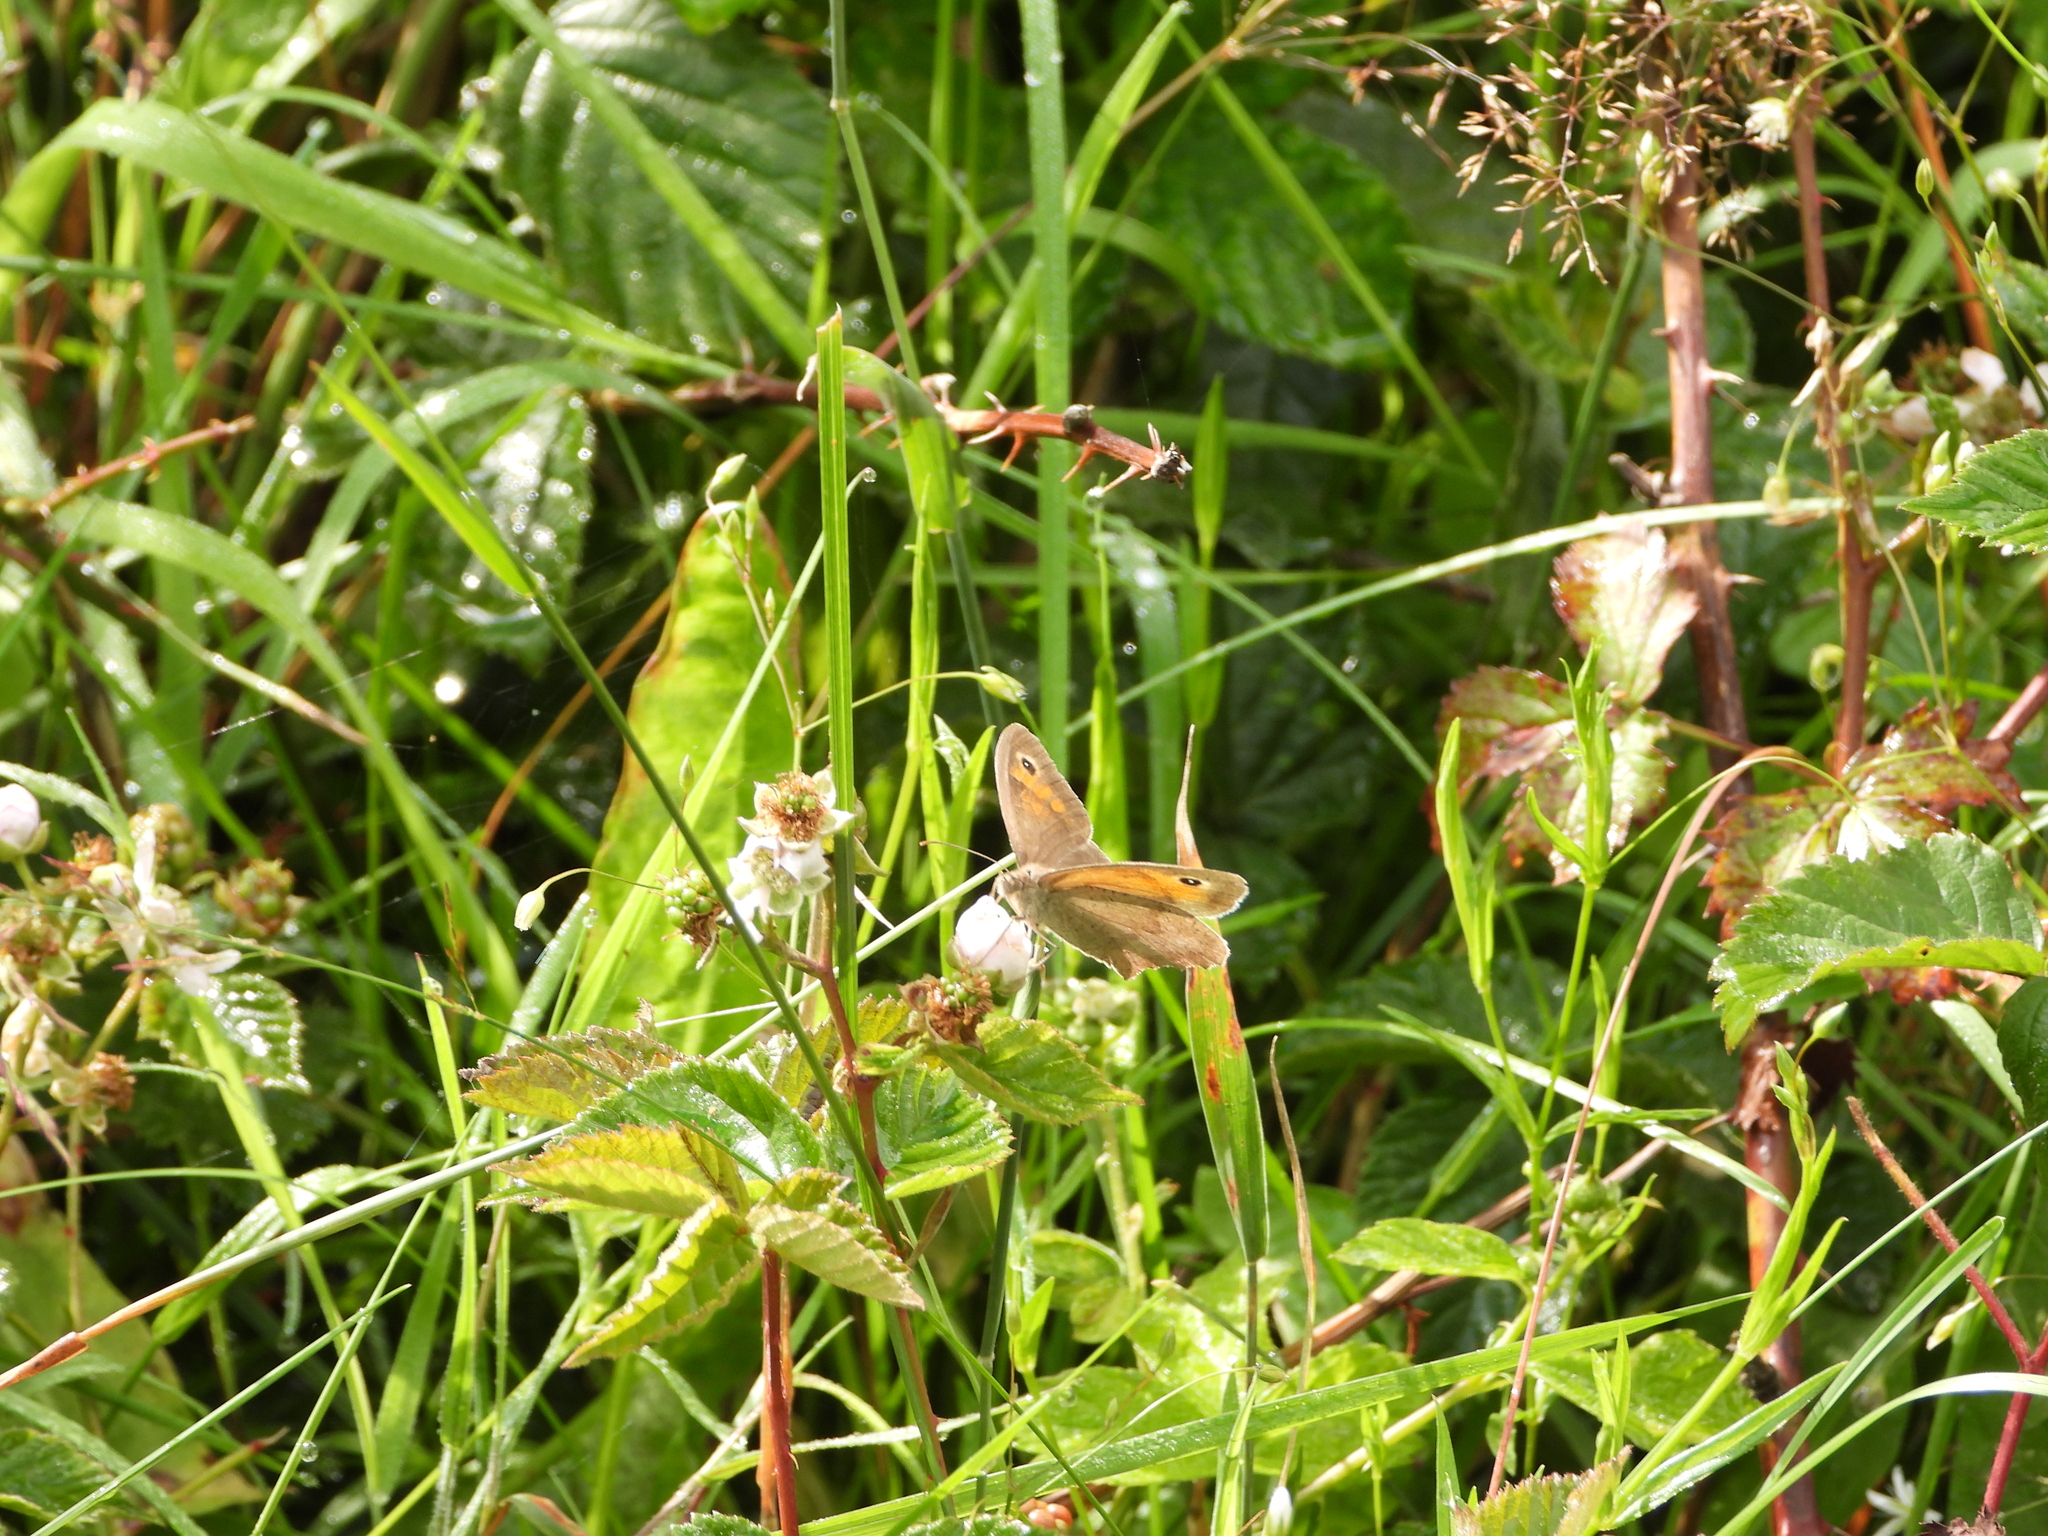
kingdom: Animalia
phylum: Arthropoda
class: Insecta
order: Lepidoptera
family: Nymphalidae
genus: Maniola
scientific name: Maniola jurtina
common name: Meadow brown
